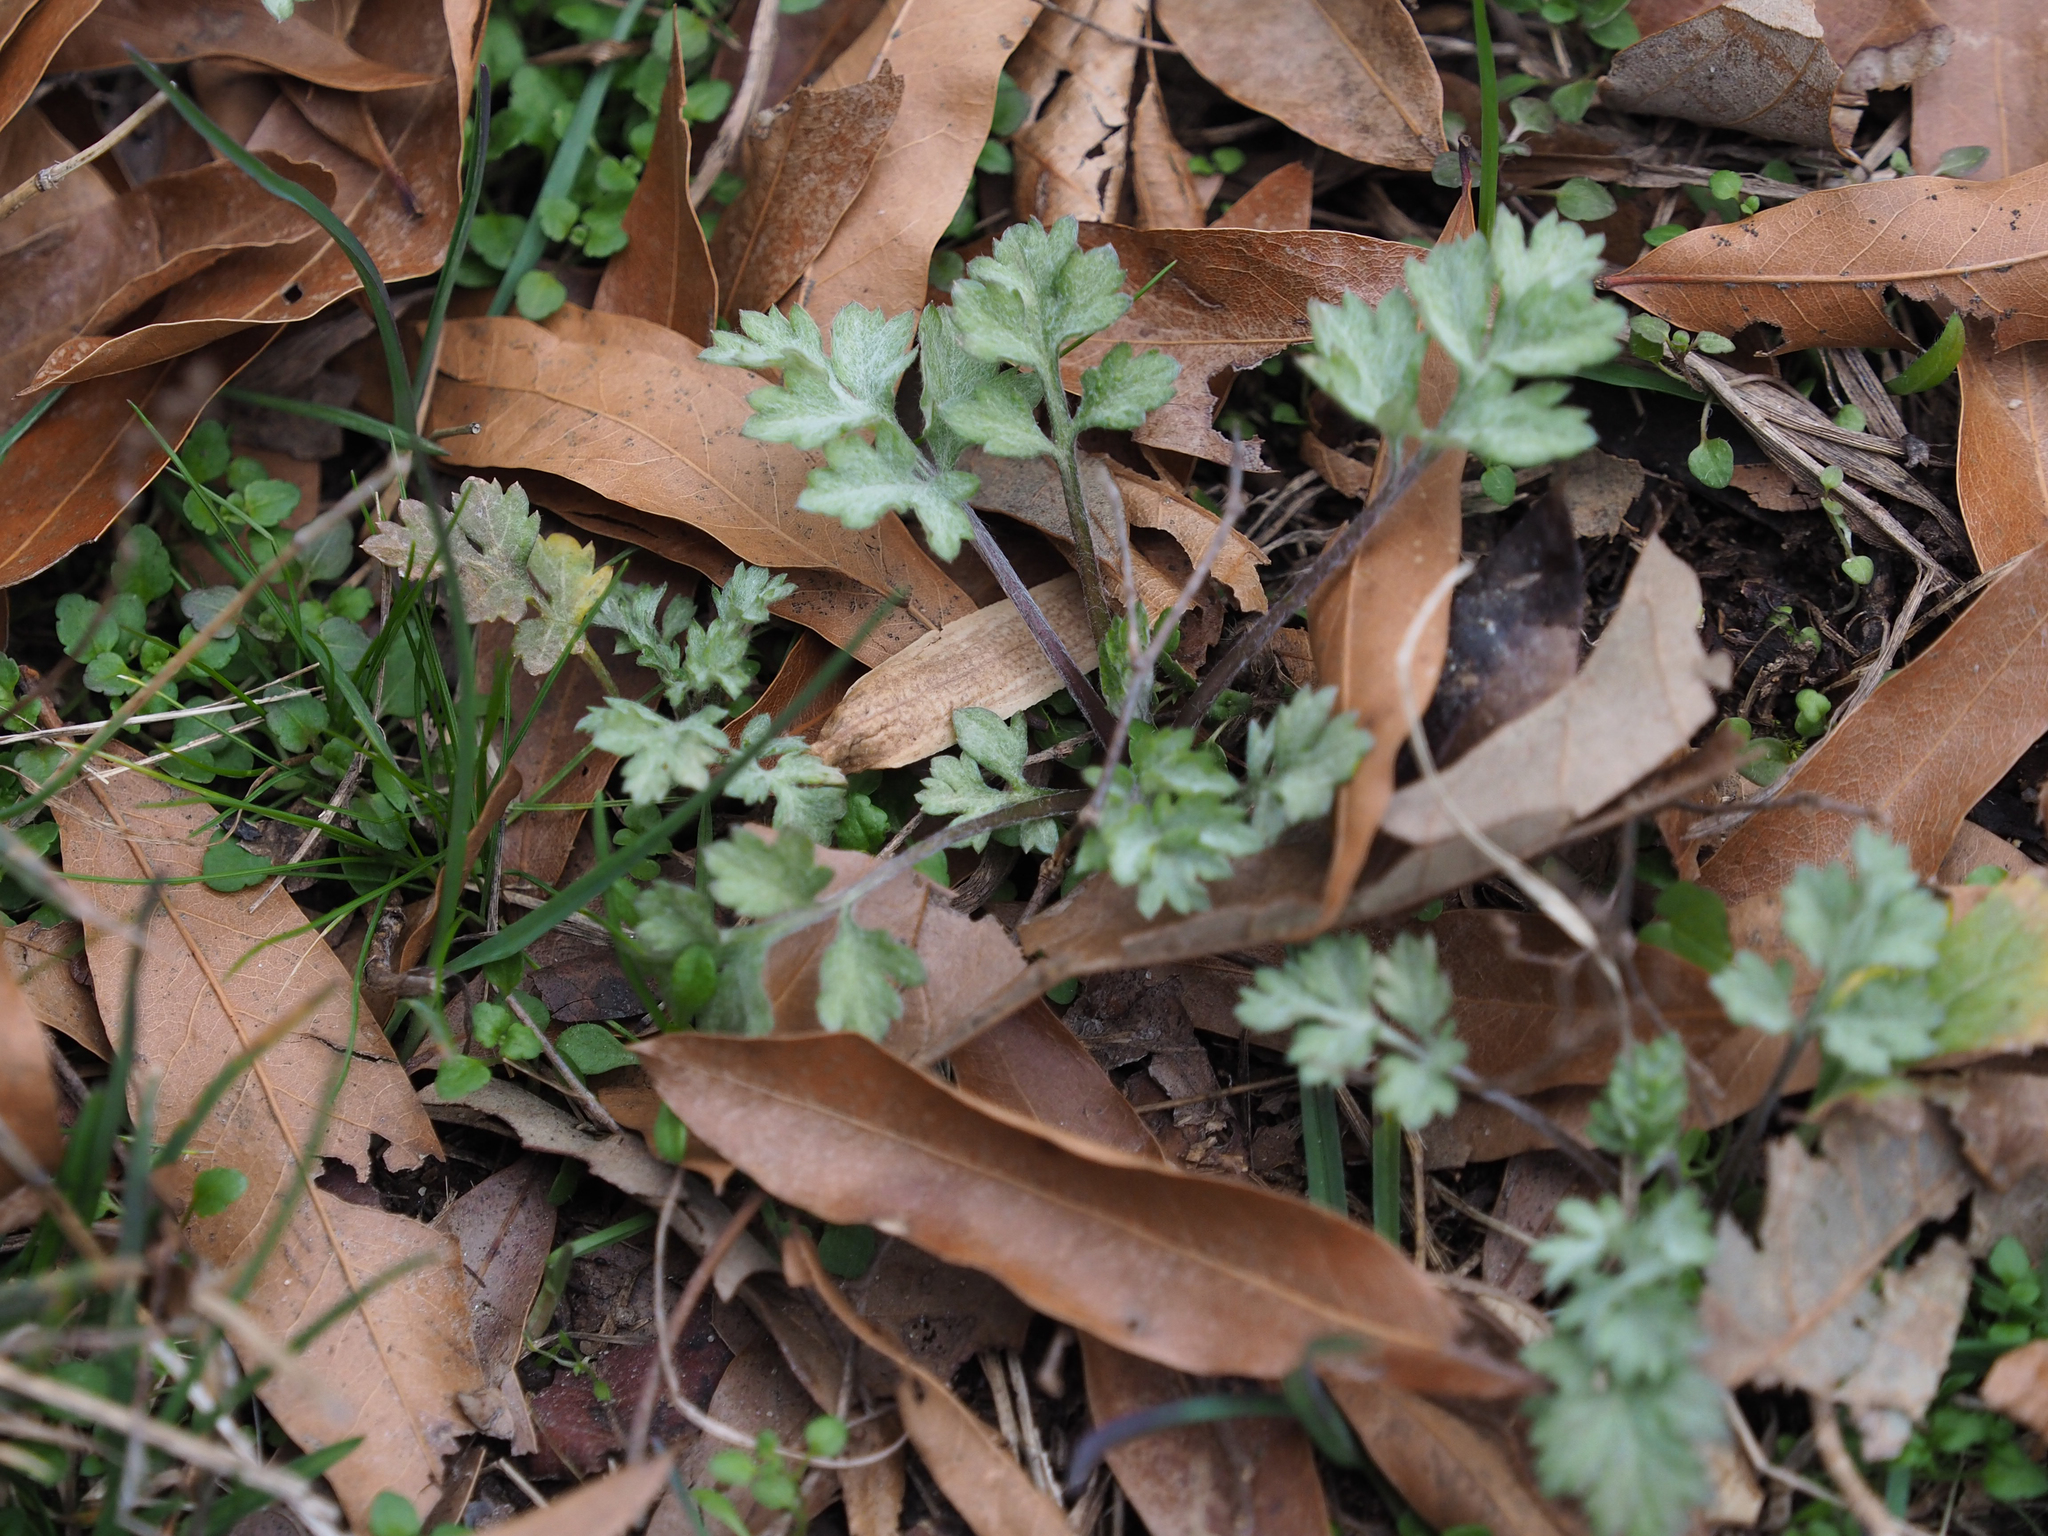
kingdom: Plantae
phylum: Tracheophyta
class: Magnoliopsida
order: Asterales
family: Asteraceae
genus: Artemisia
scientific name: Artemisia vulgaris
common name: Mugwort
